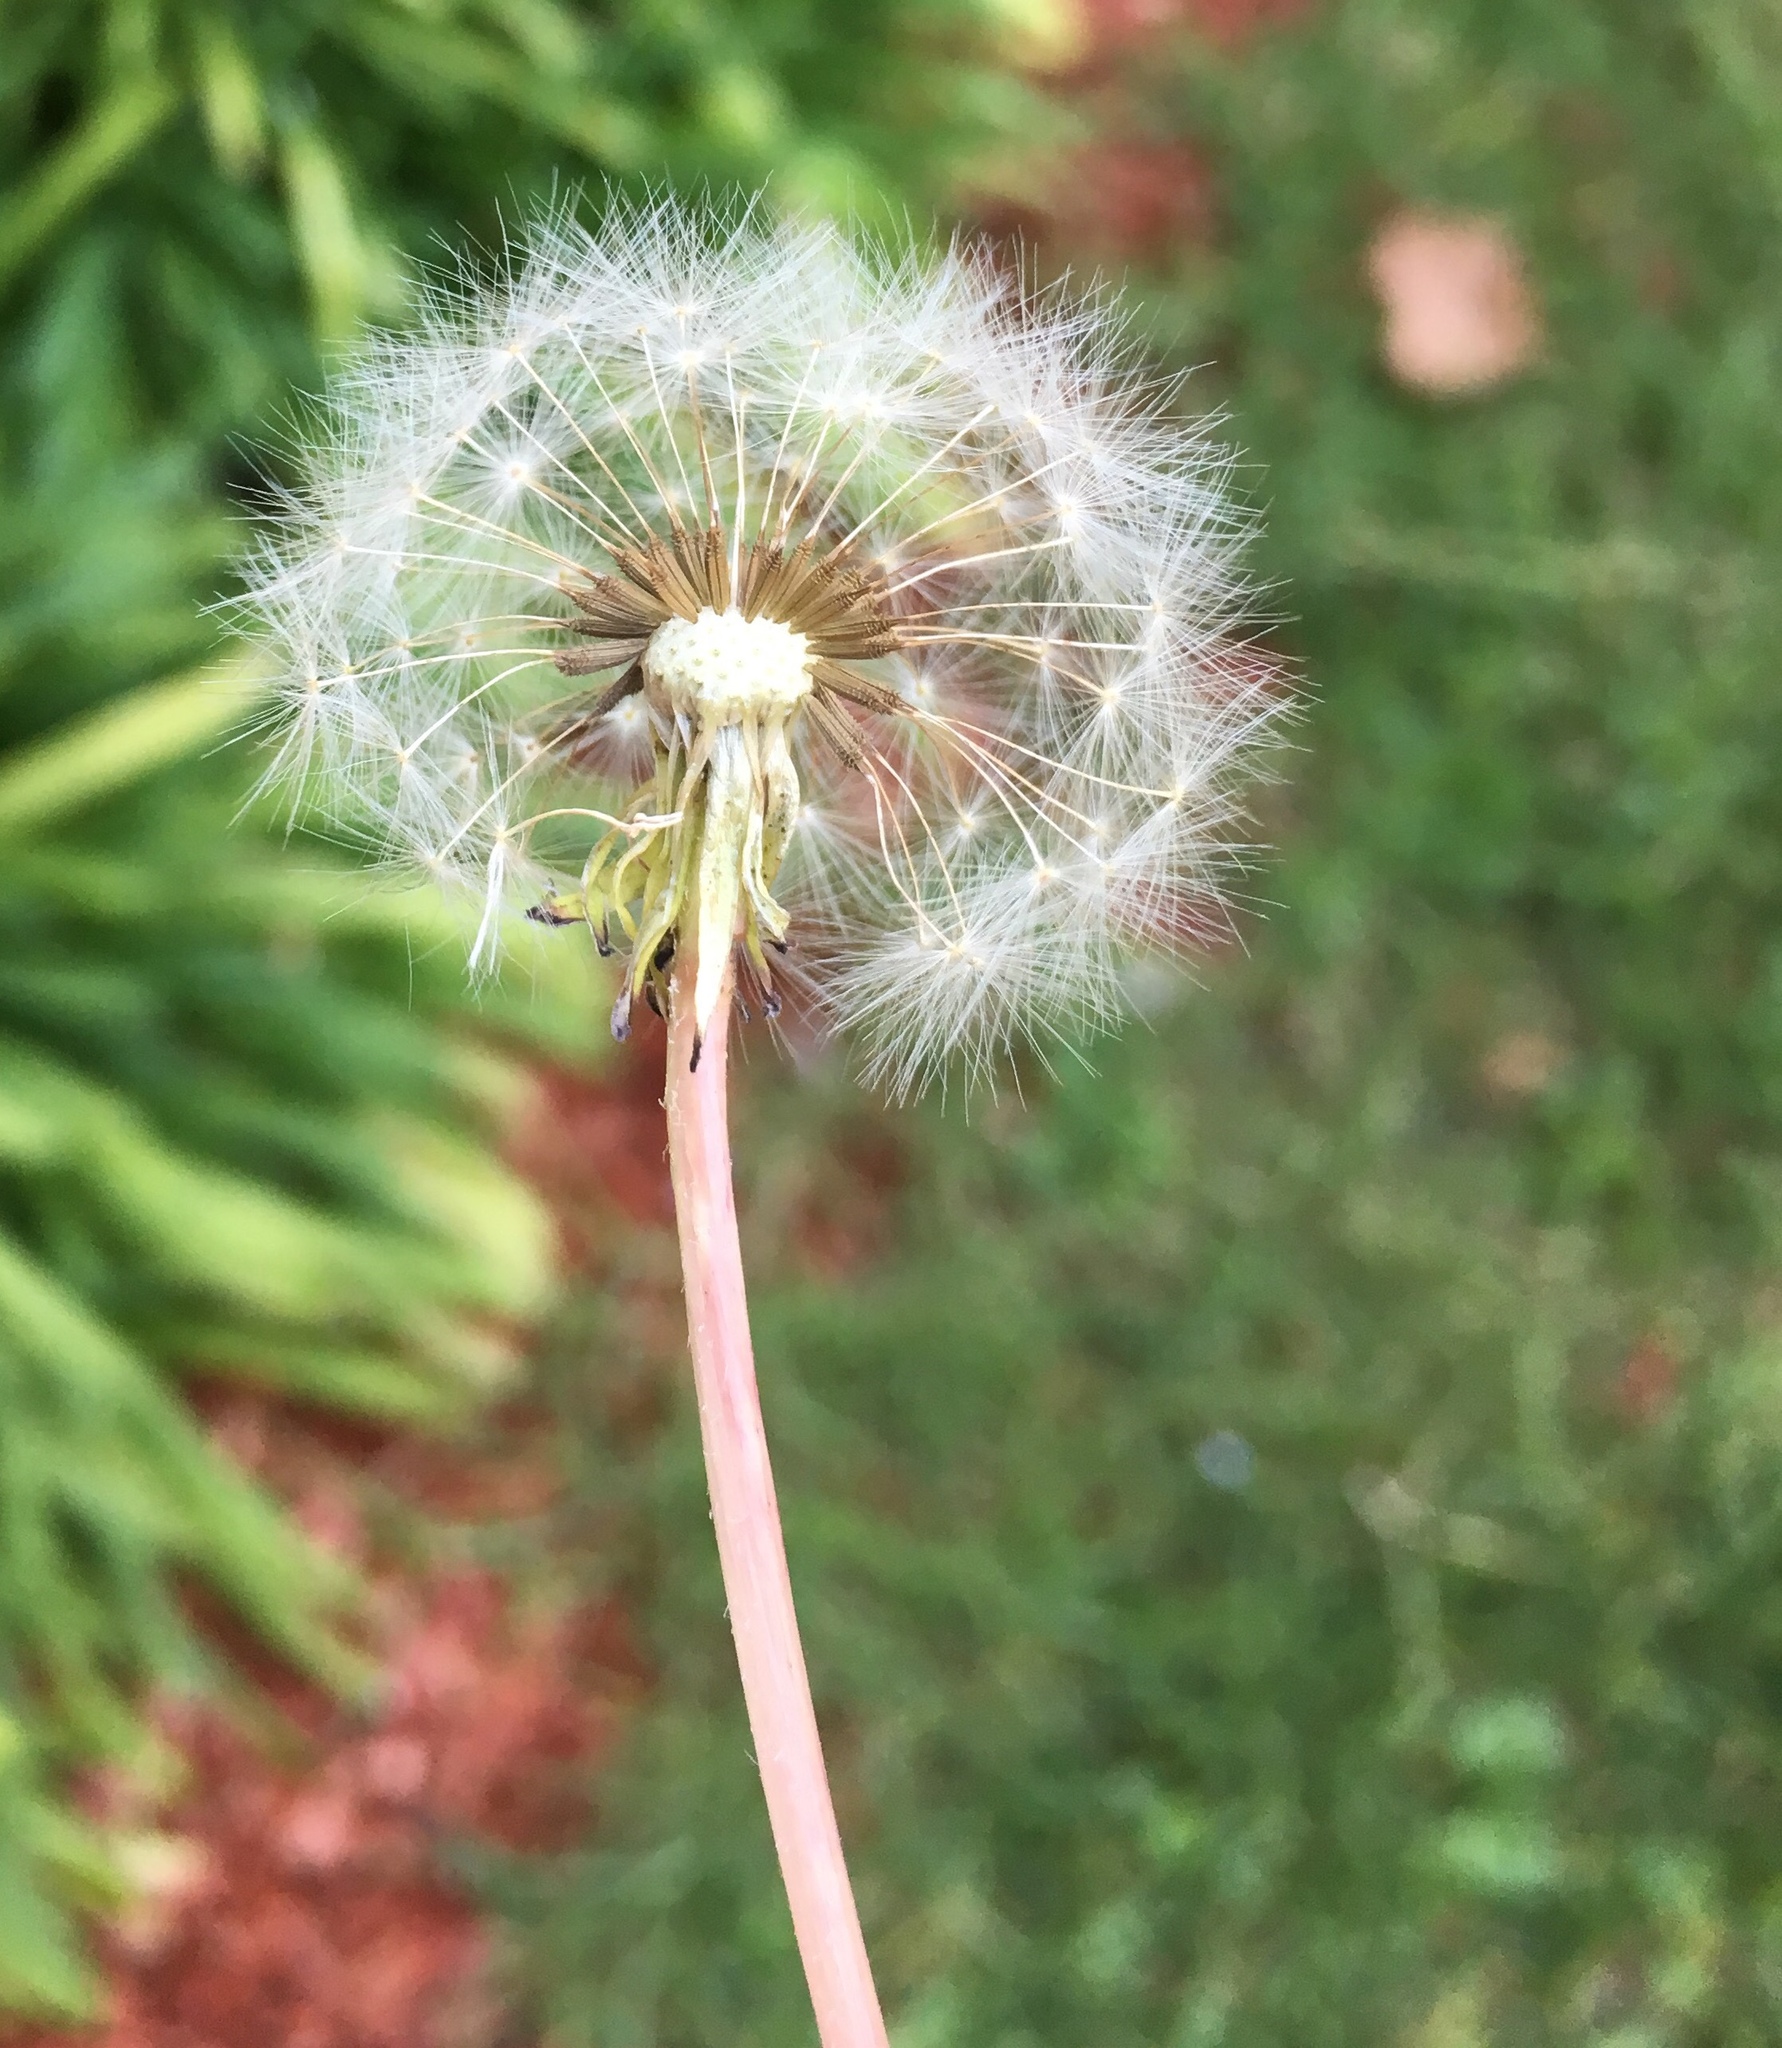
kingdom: Plantae
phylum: Tracheophyta
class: Magnoliopsida
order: Asterales
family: Asteraceae
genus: Taraxacum
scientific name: Taraxacum officinale
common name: Common dandelion
